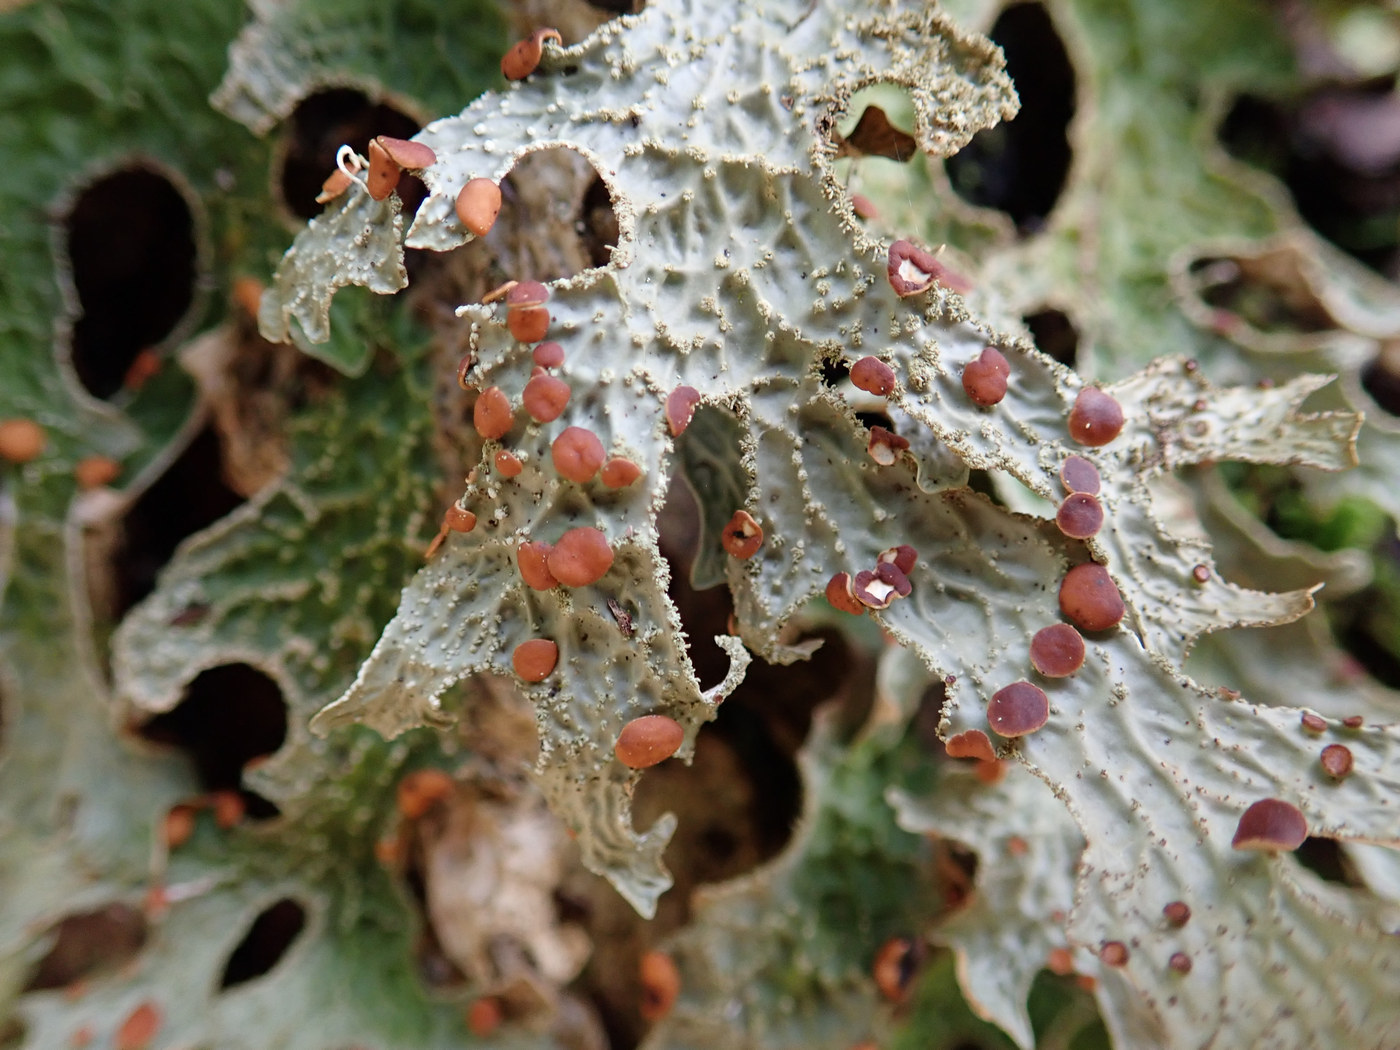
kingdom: Fungi
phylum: Ascomycota
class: Lecanoromycetes
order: Peltigerales
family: Lobariaceae
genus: Lobaria
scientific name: Lobaria pulmonaria
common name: Lungwort
